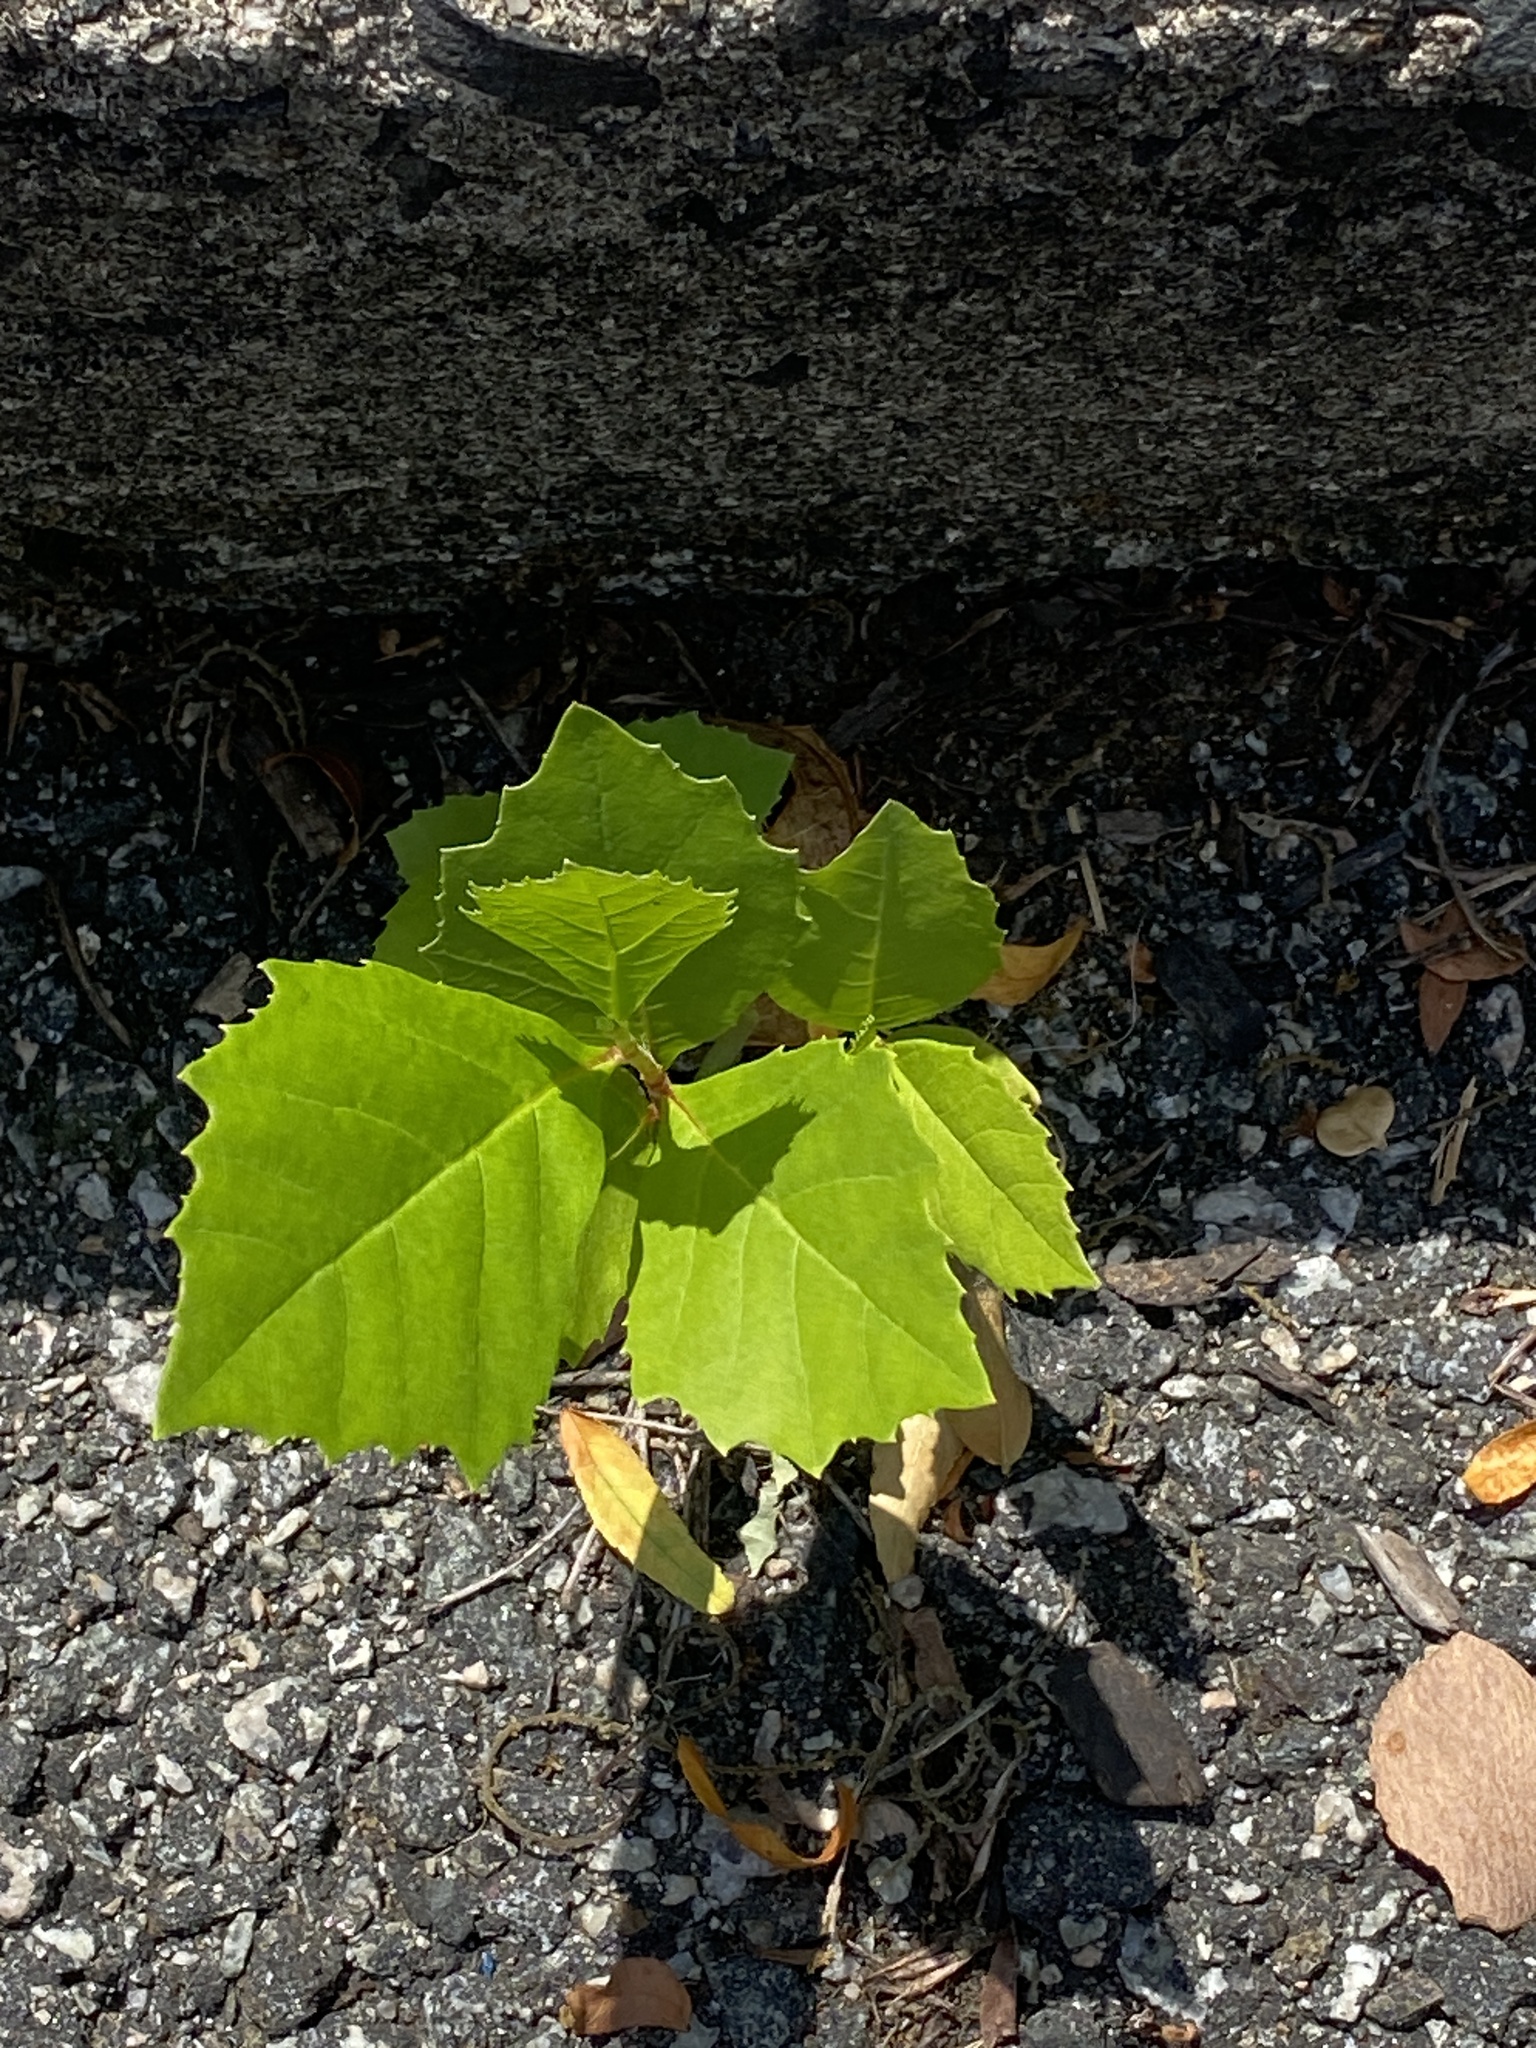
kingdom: Plantae
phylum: Tracheophyta
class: Magnoliopsida
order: Proteales
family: Platanaceae
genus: Platanus
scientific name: Platanus occidentalis
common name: American sycamore
